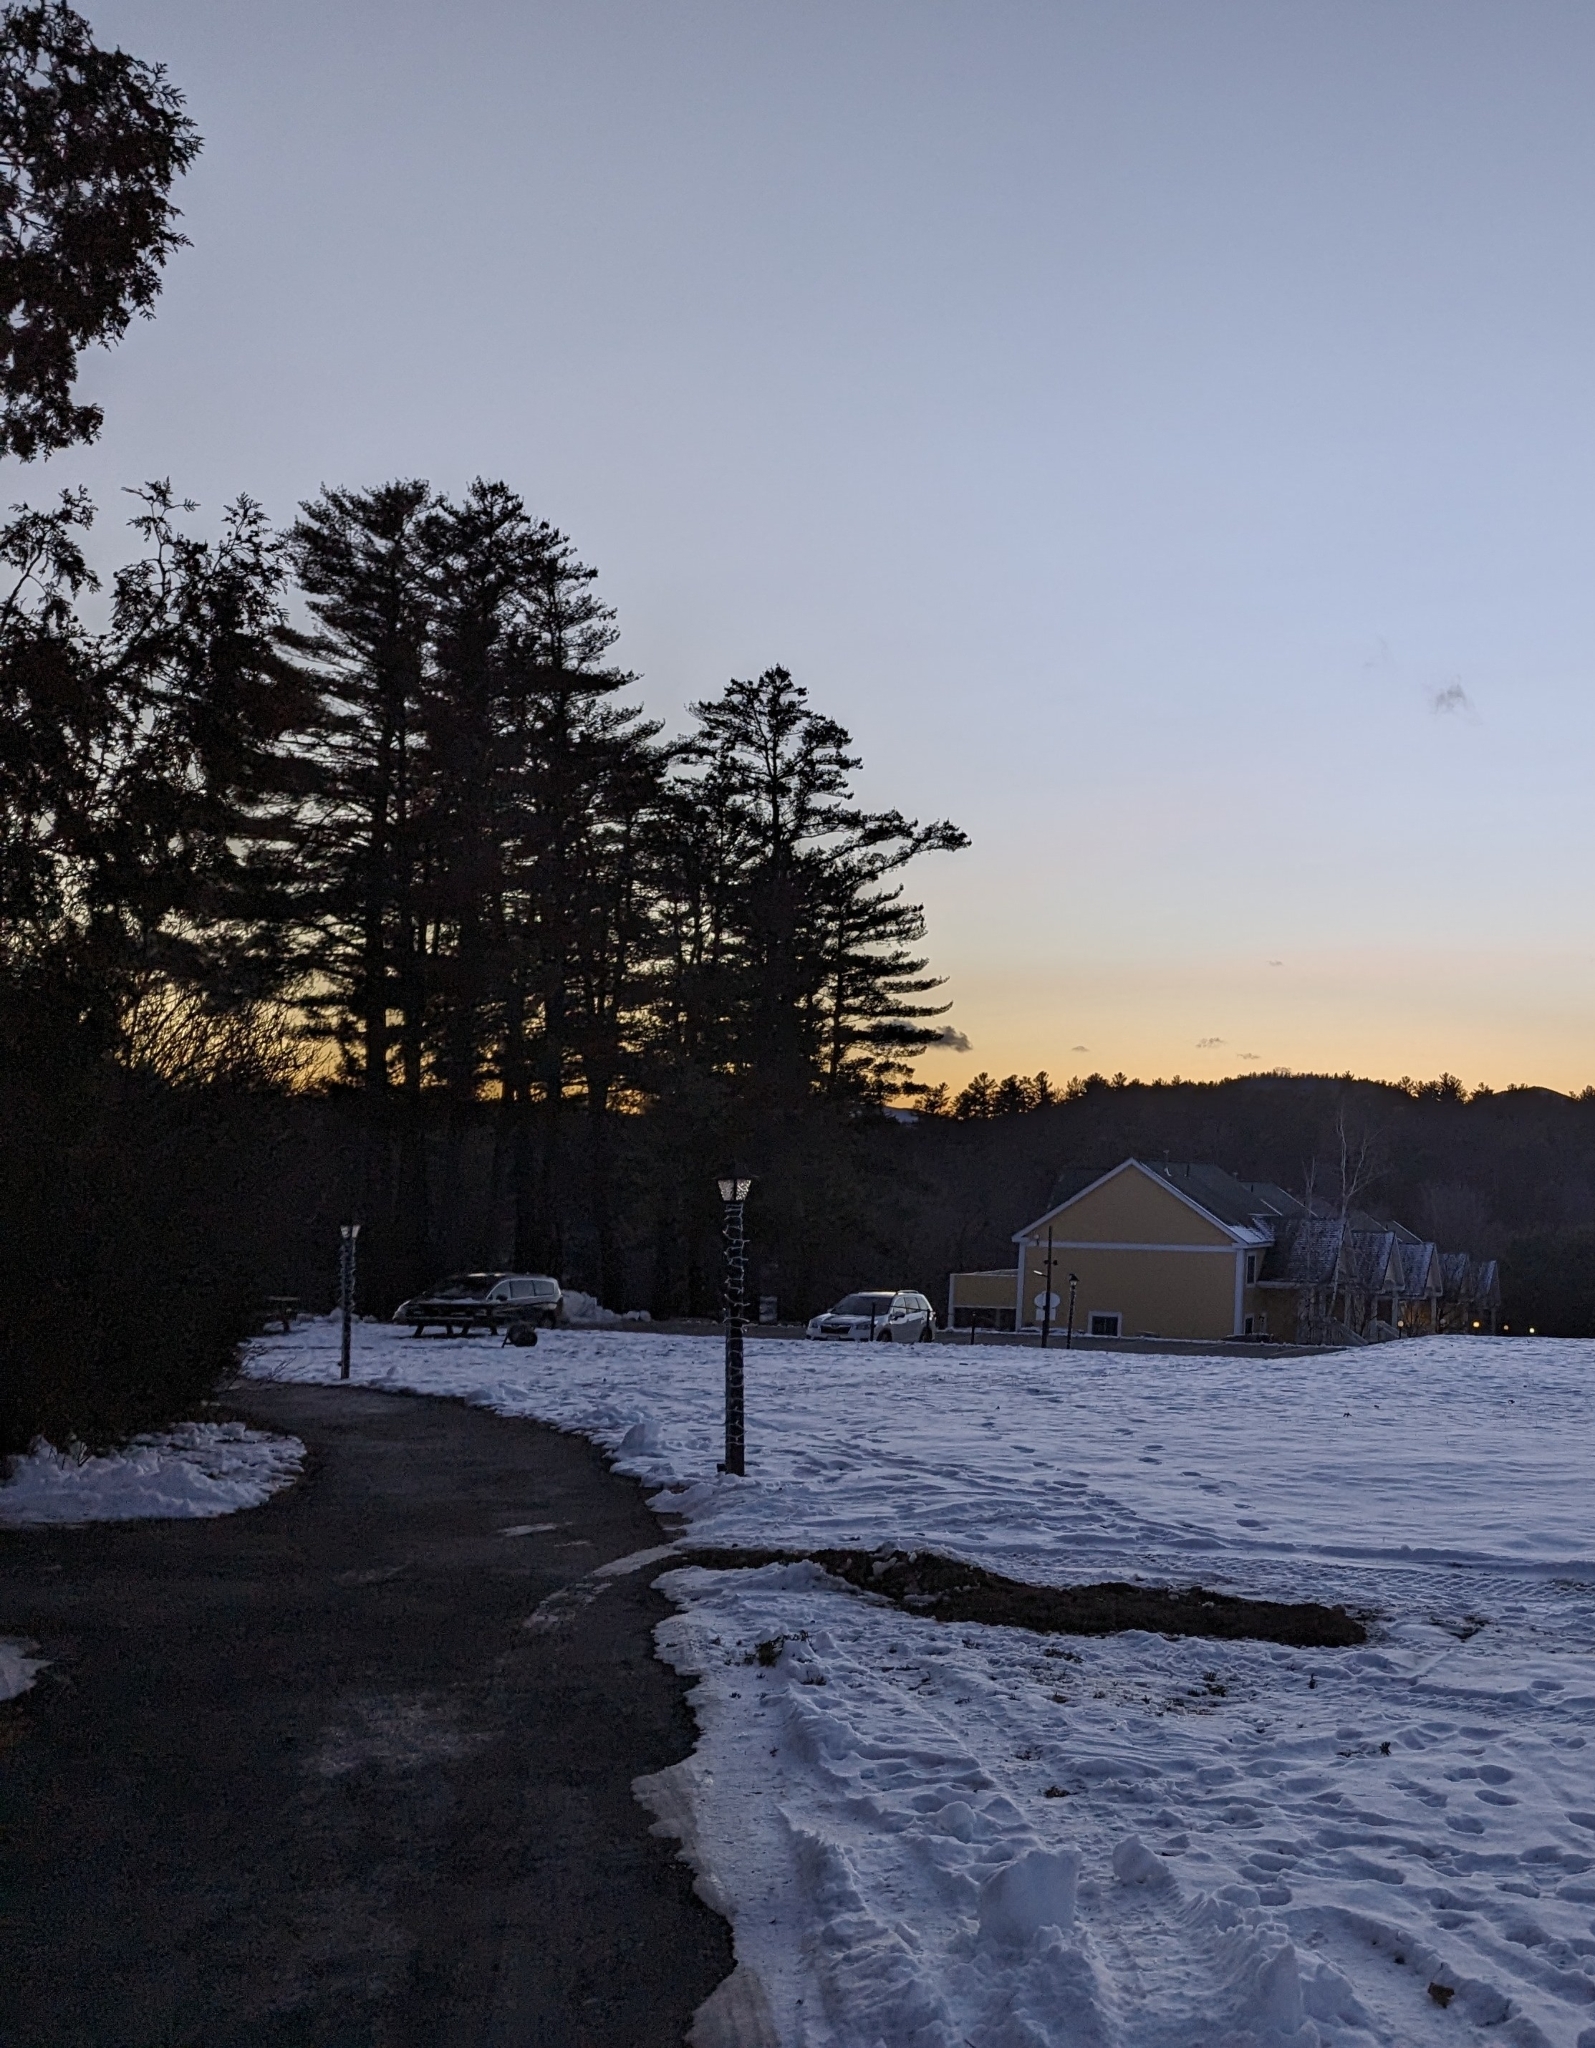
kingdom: Plantae
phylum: Tracheophyta
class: Pinopsida
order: Pinales
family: Pinaceae
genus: Pinus
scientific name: Pinus strobus
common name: Weymouth pine
